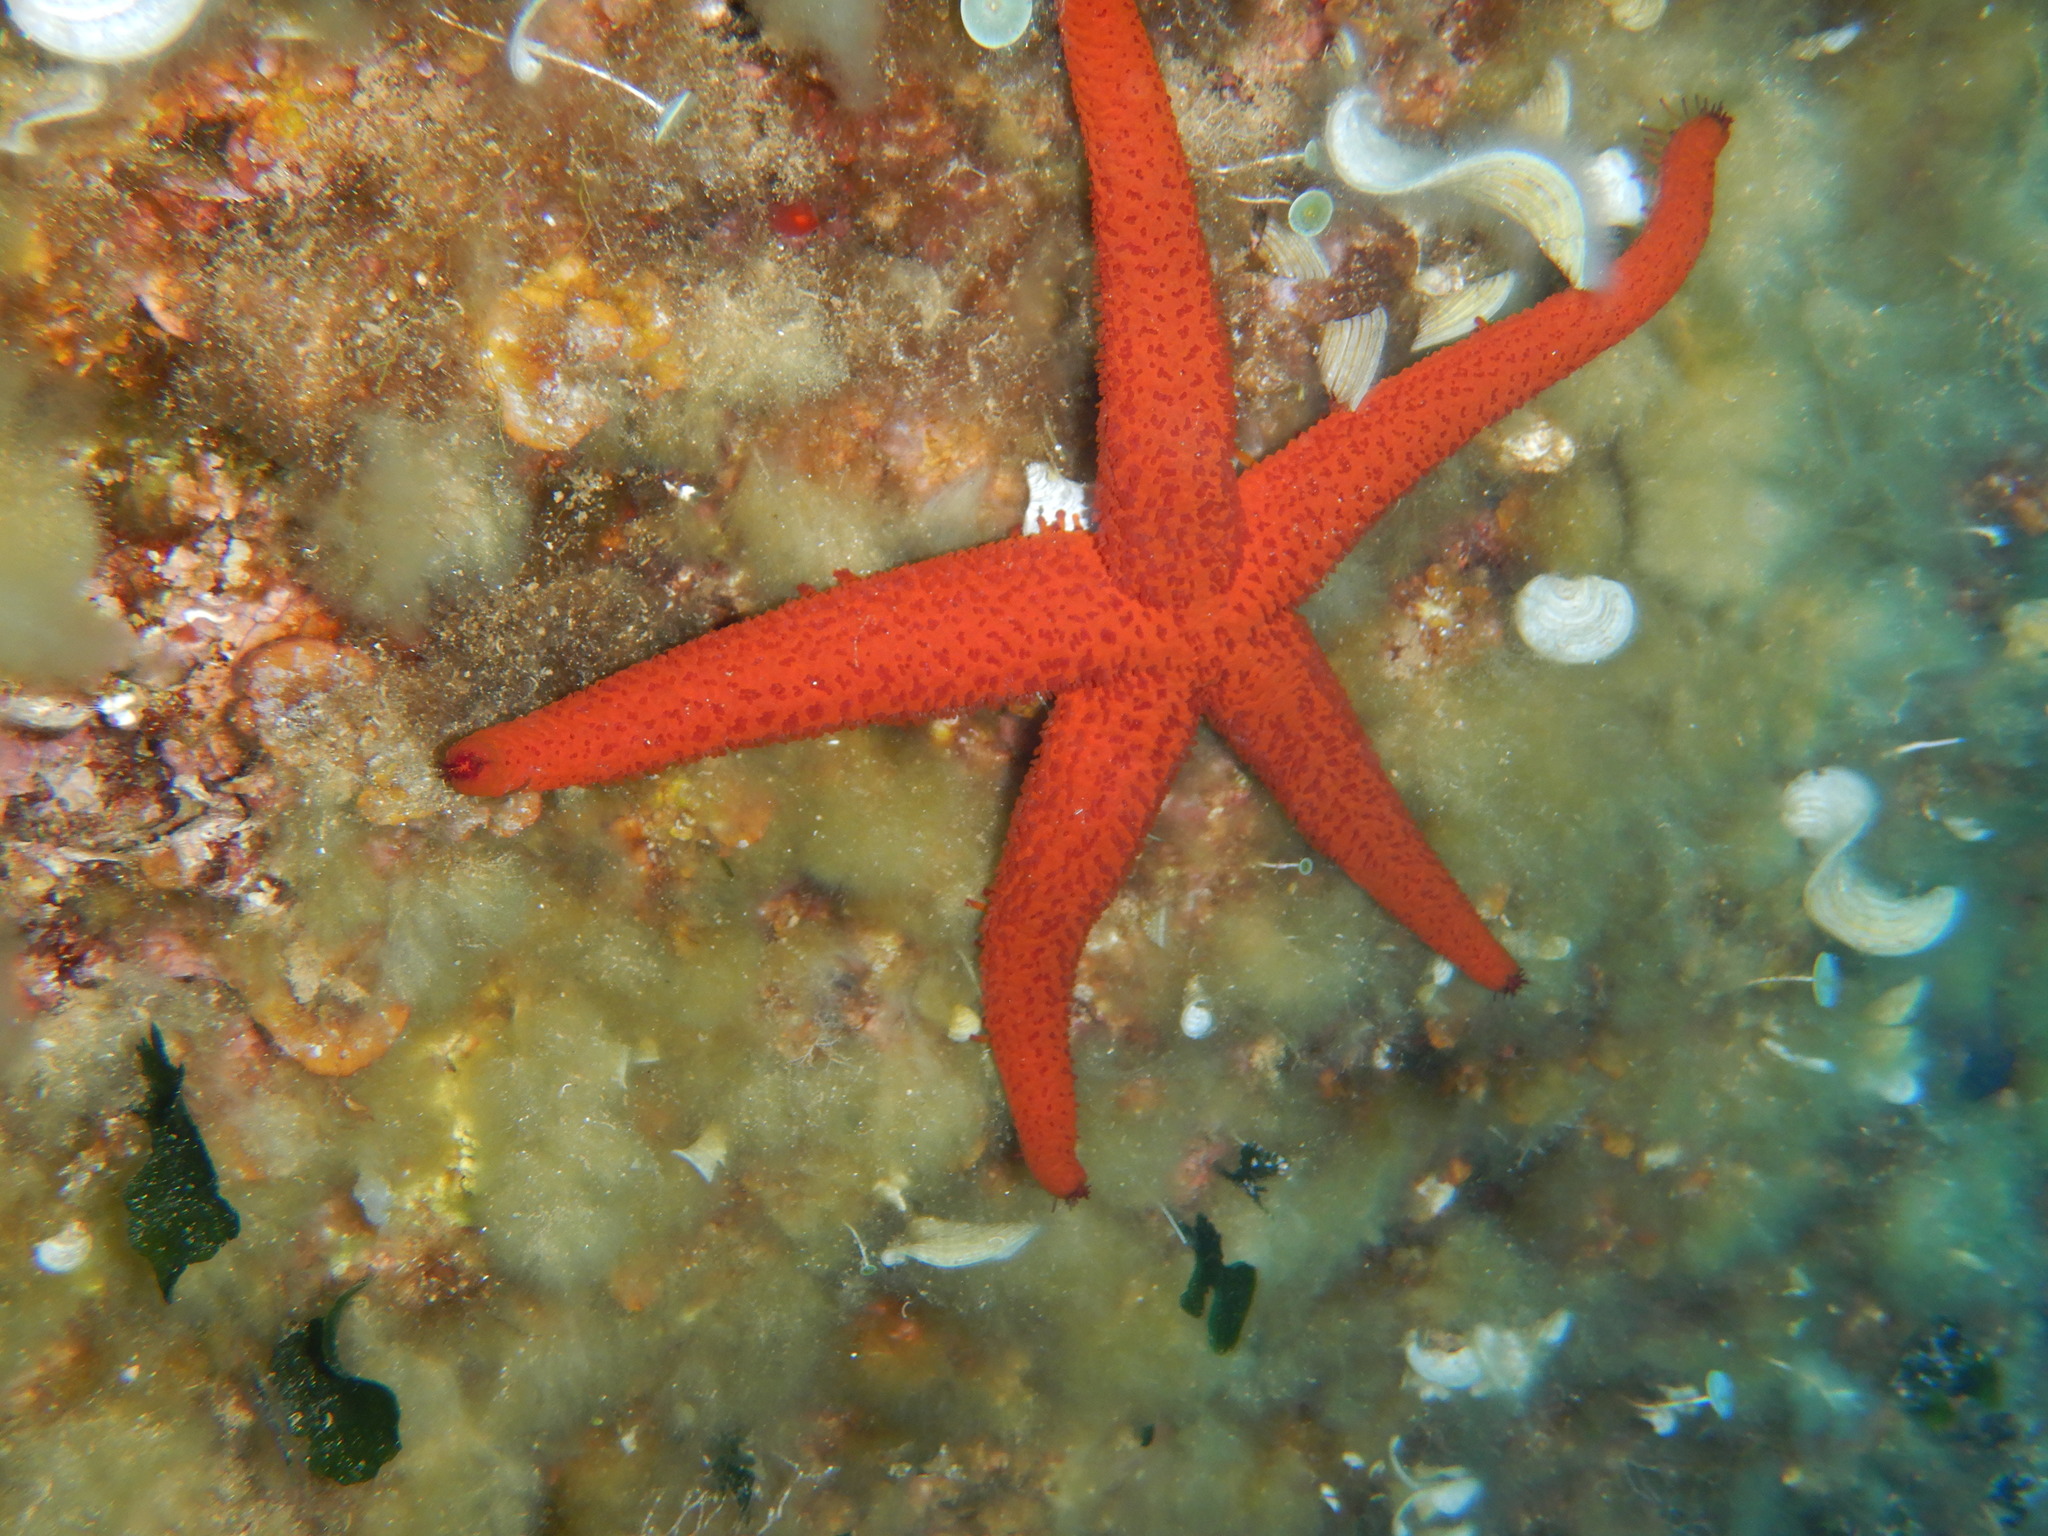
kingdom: Animalia
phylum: Echinodermata
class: Asteroidea
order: Spinulosida
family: Echinasteridae
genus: Echinaster
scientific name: Echinaster sepositus
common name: Red starfish
